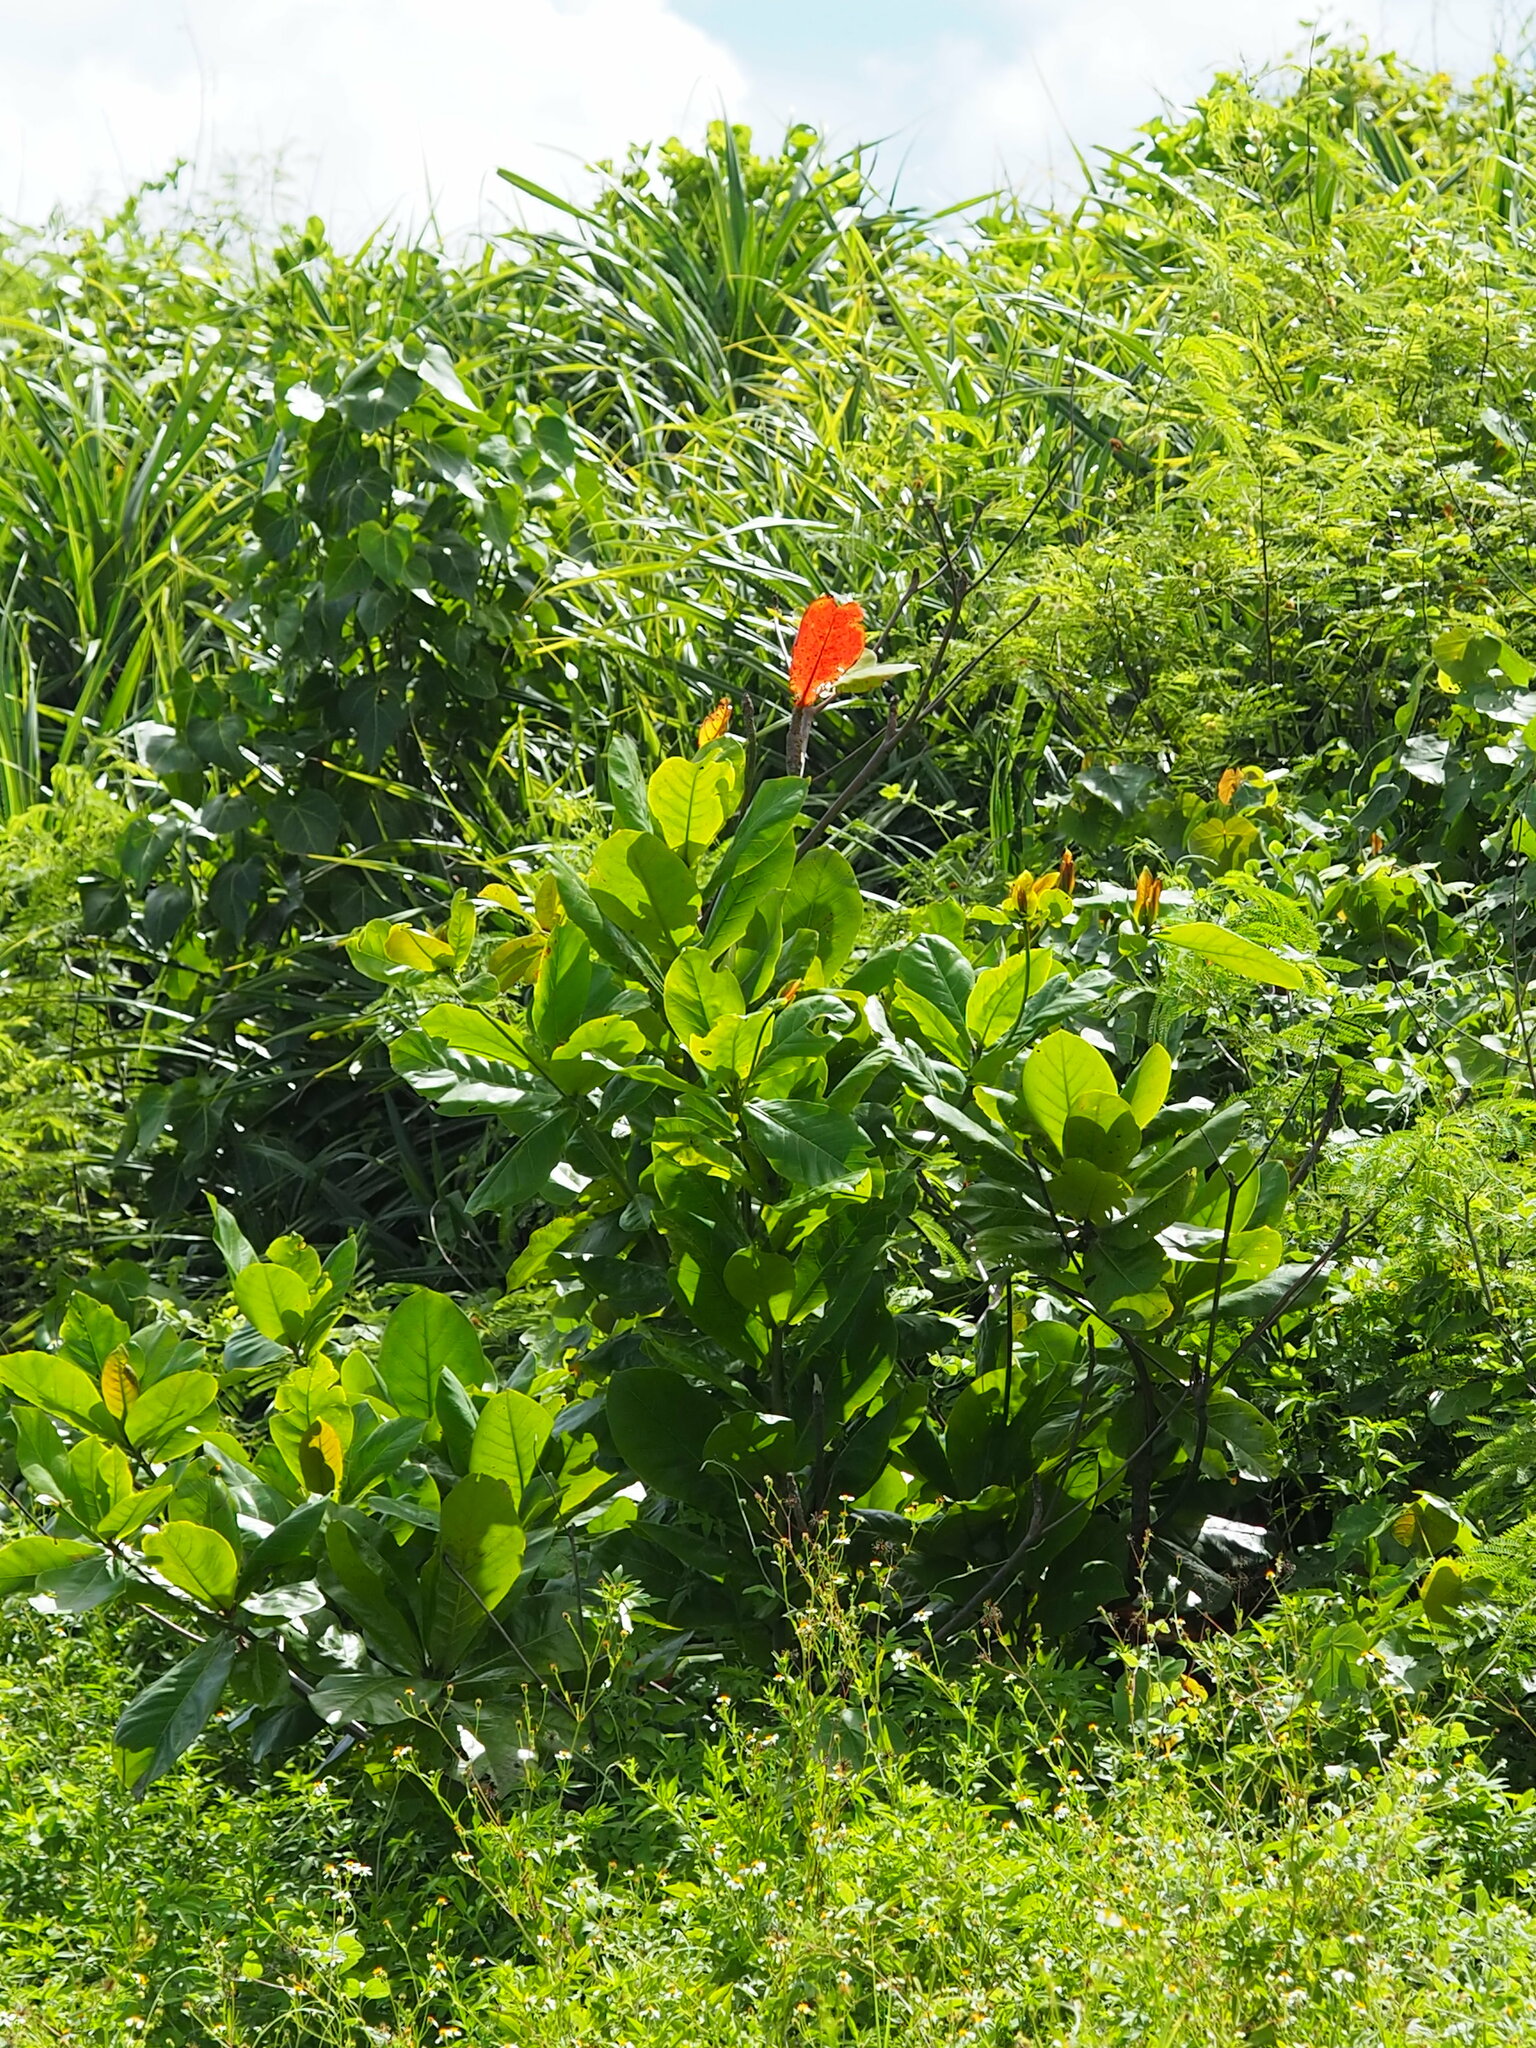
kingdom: Plantae
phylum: Tracheophyta
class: Magnoliopsida
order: Myrtales
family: Combretaceae
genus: Terminalia
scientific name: Terminalia catappa
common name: Tropical almond
